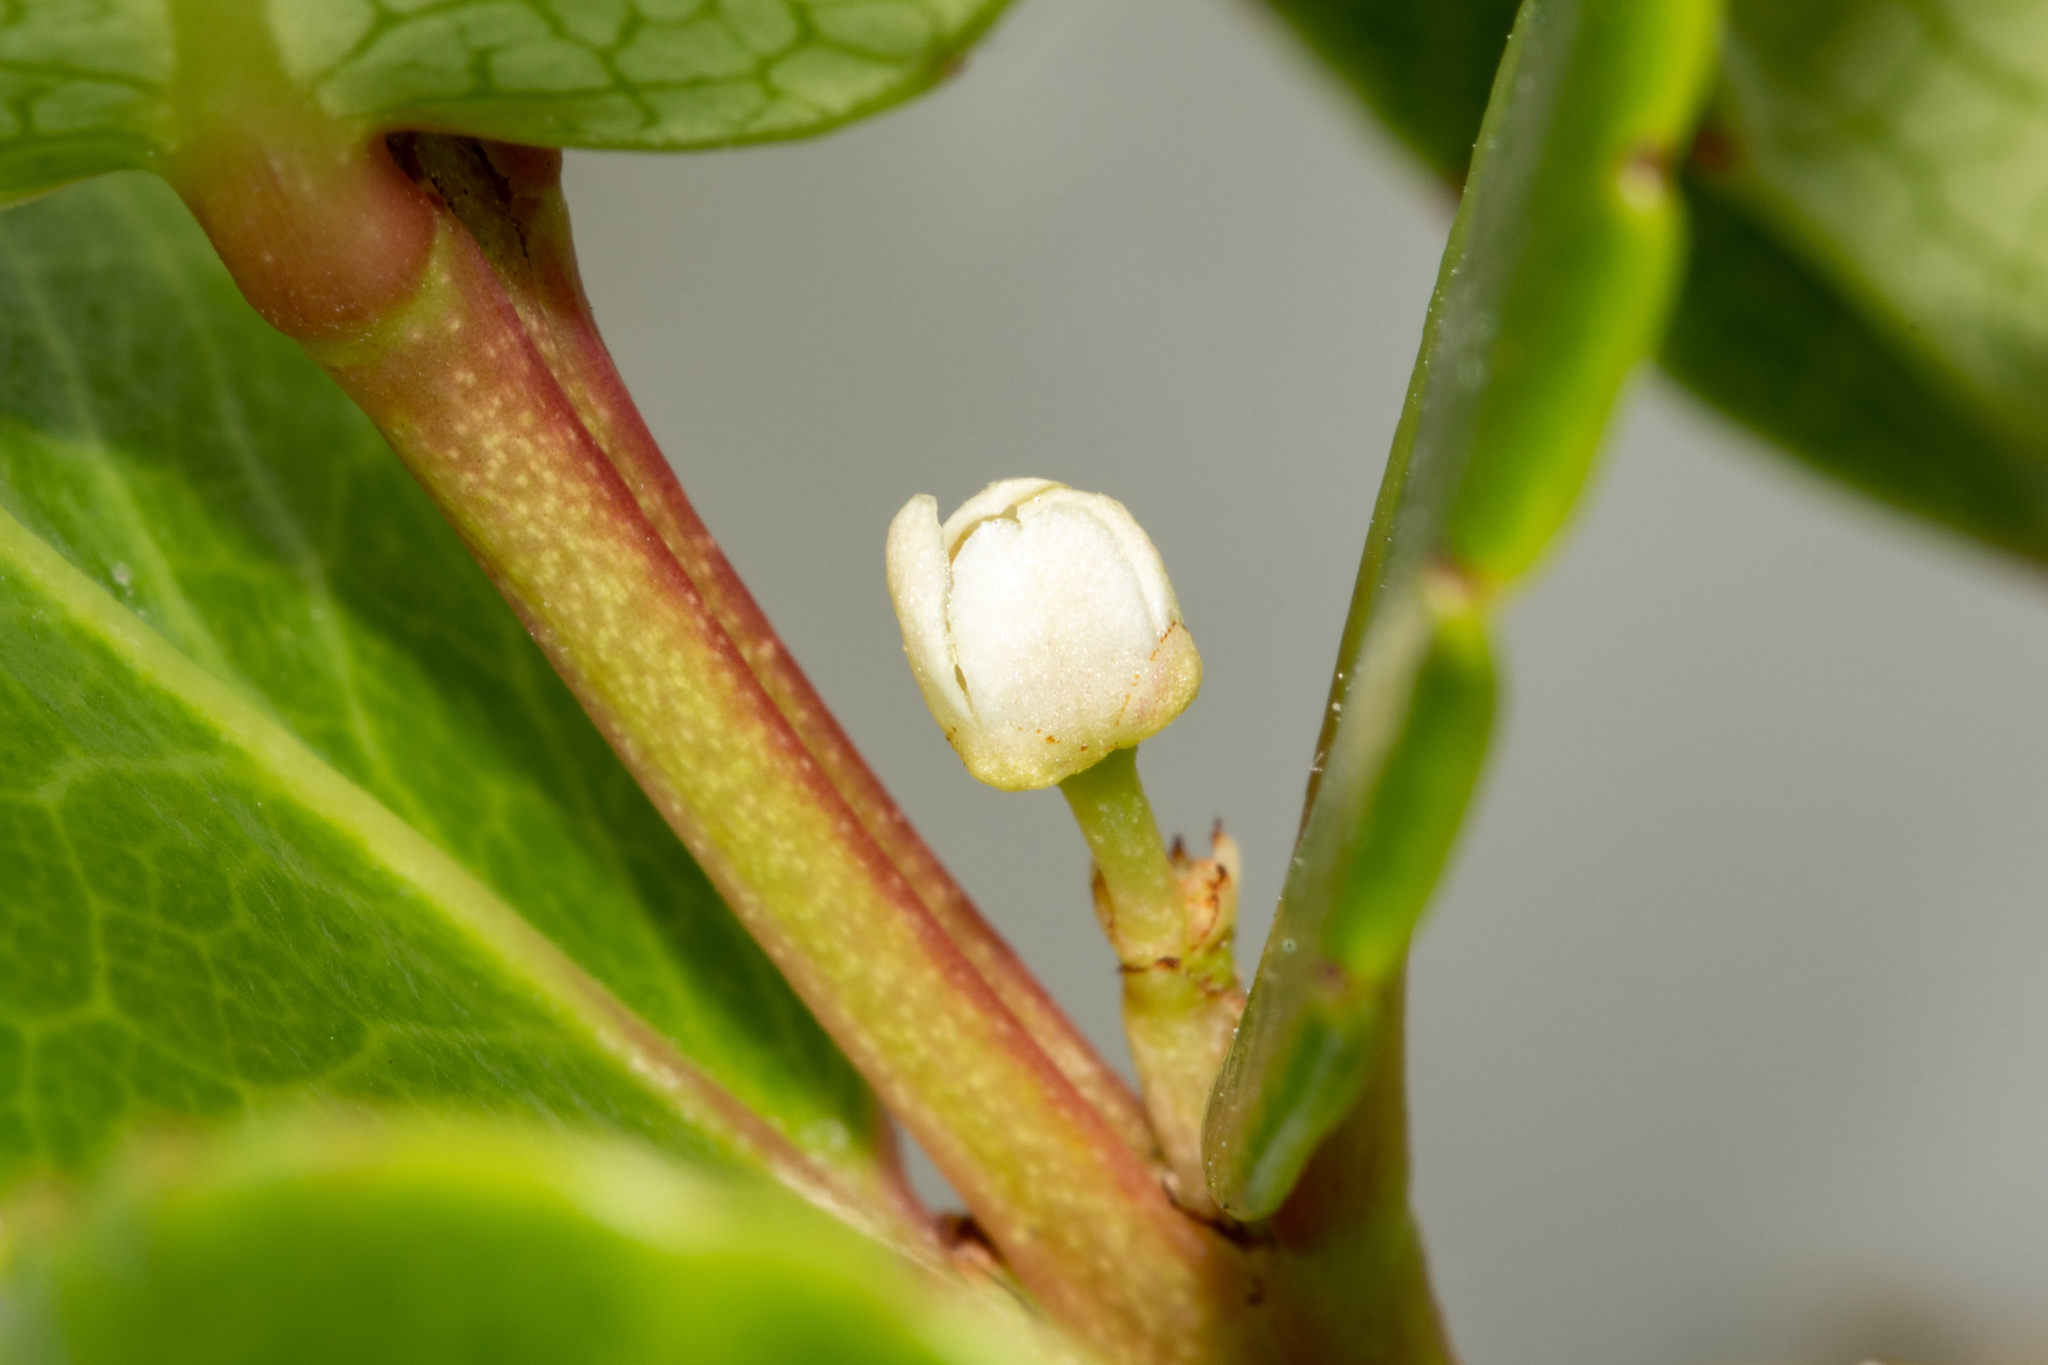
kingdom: Plantae
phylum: Tracheophyta
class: Magnoliopsida
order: Celastrales
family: Celastraceae
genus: Cassine
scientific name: Cassine peragua
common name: Cape saffron
